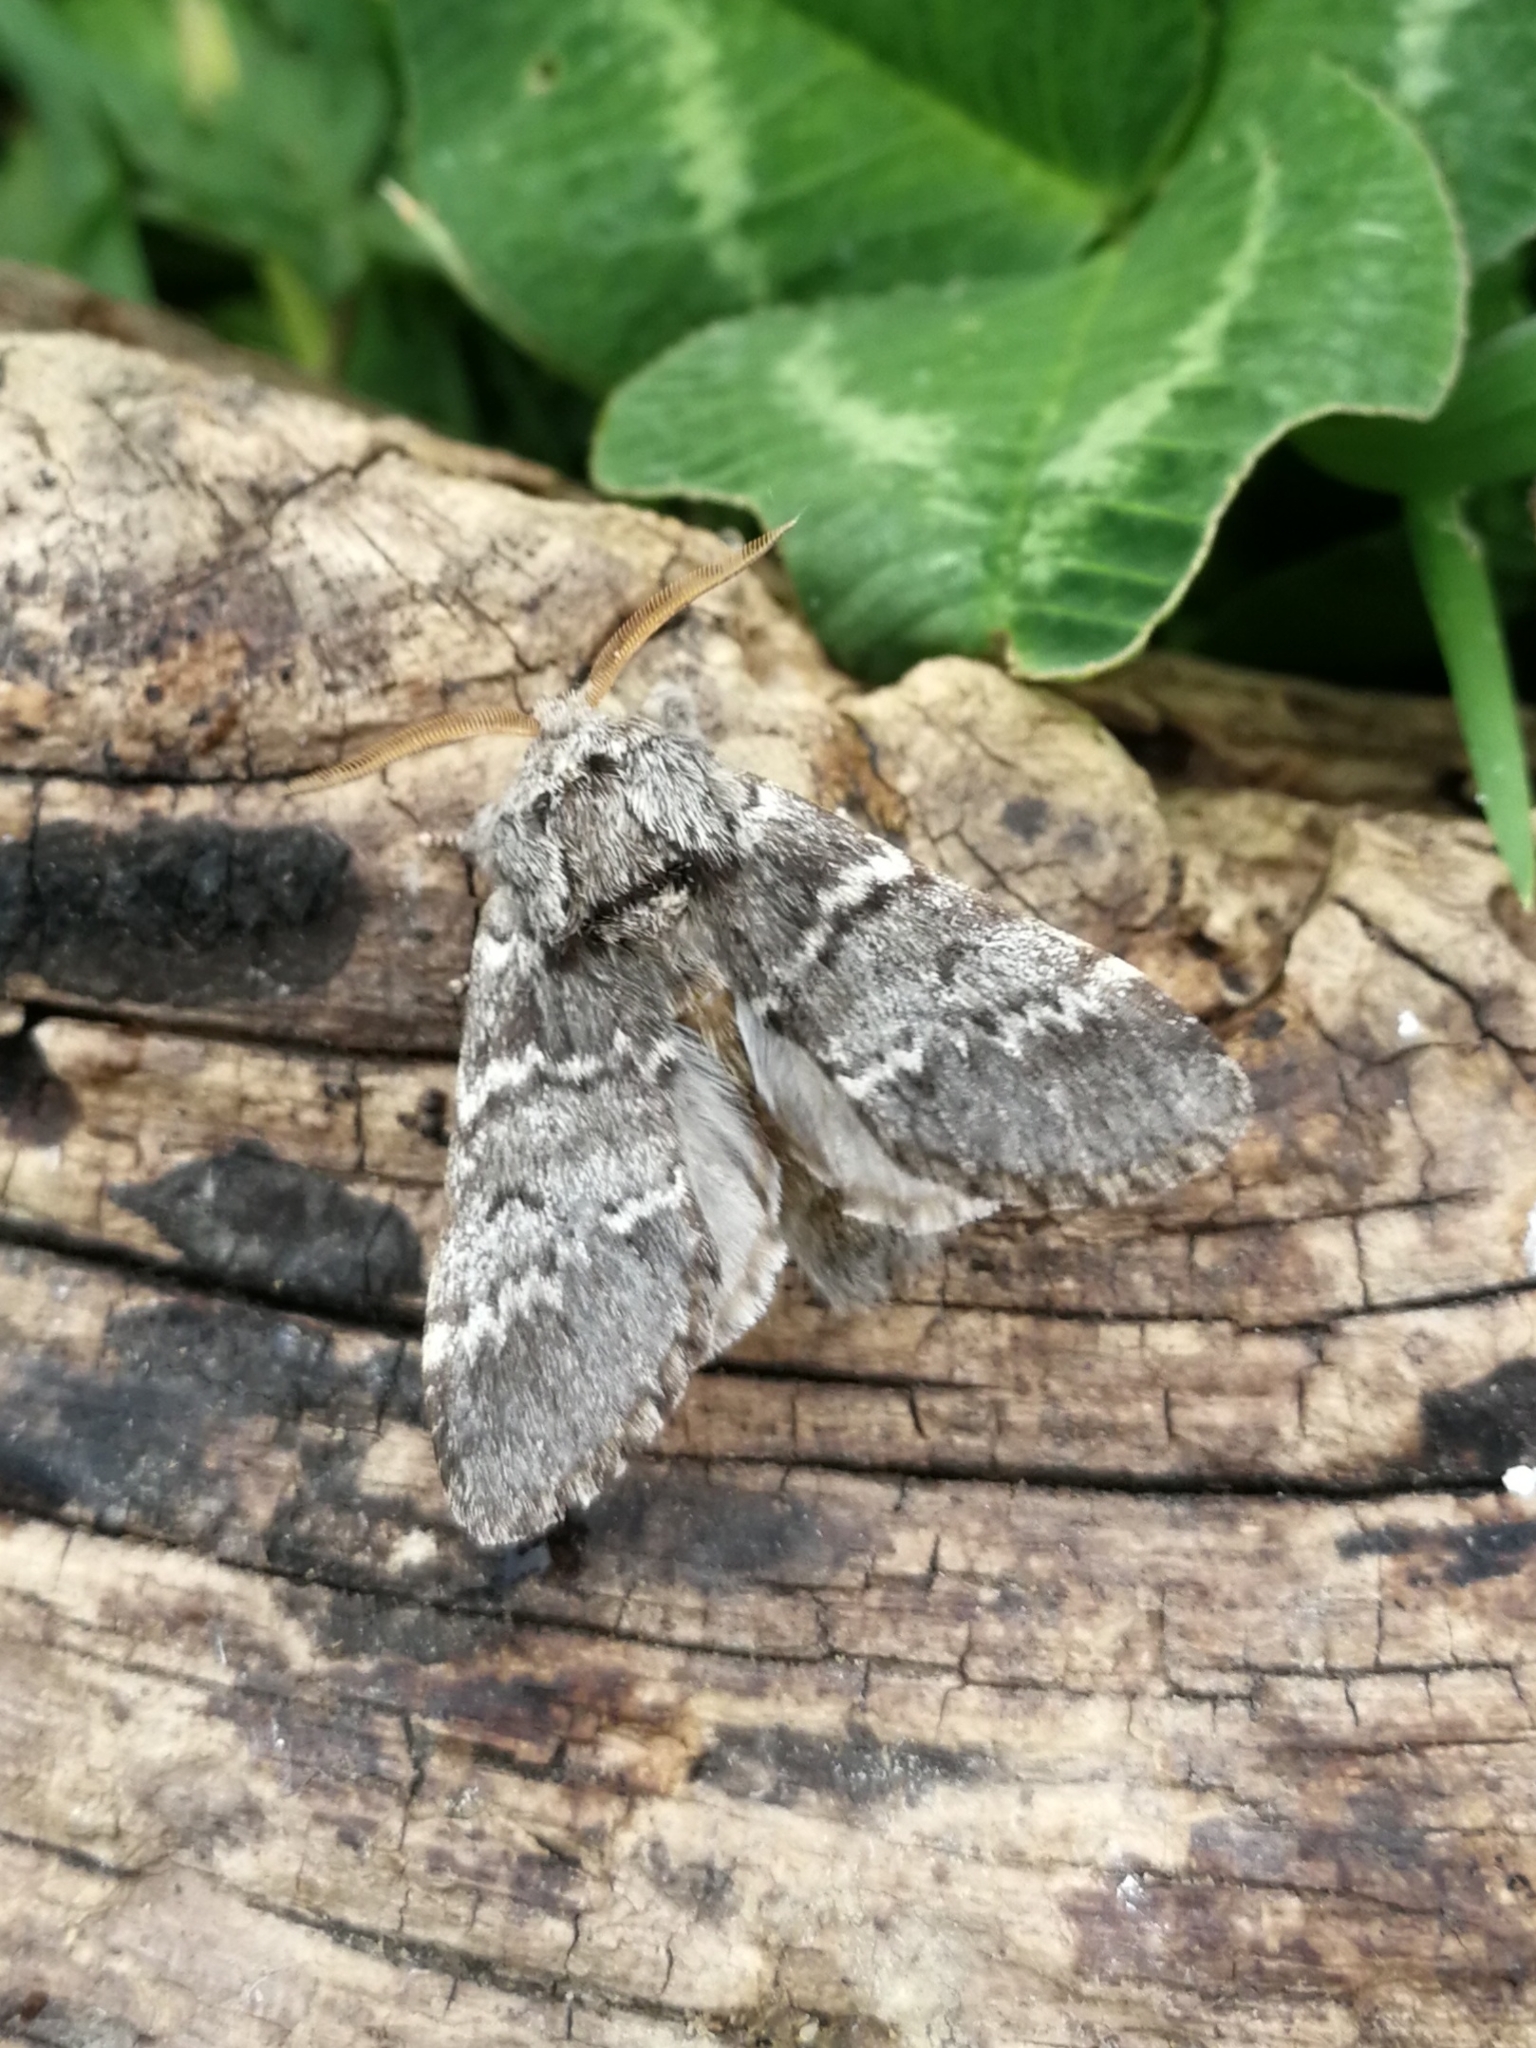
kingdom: Animalia
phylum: Arthropoda
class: Insecta
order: Lepidoptera
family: Notodontidae
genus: Drymonia
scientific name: Drymonia ruficornis
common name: Lunar marbled brown
